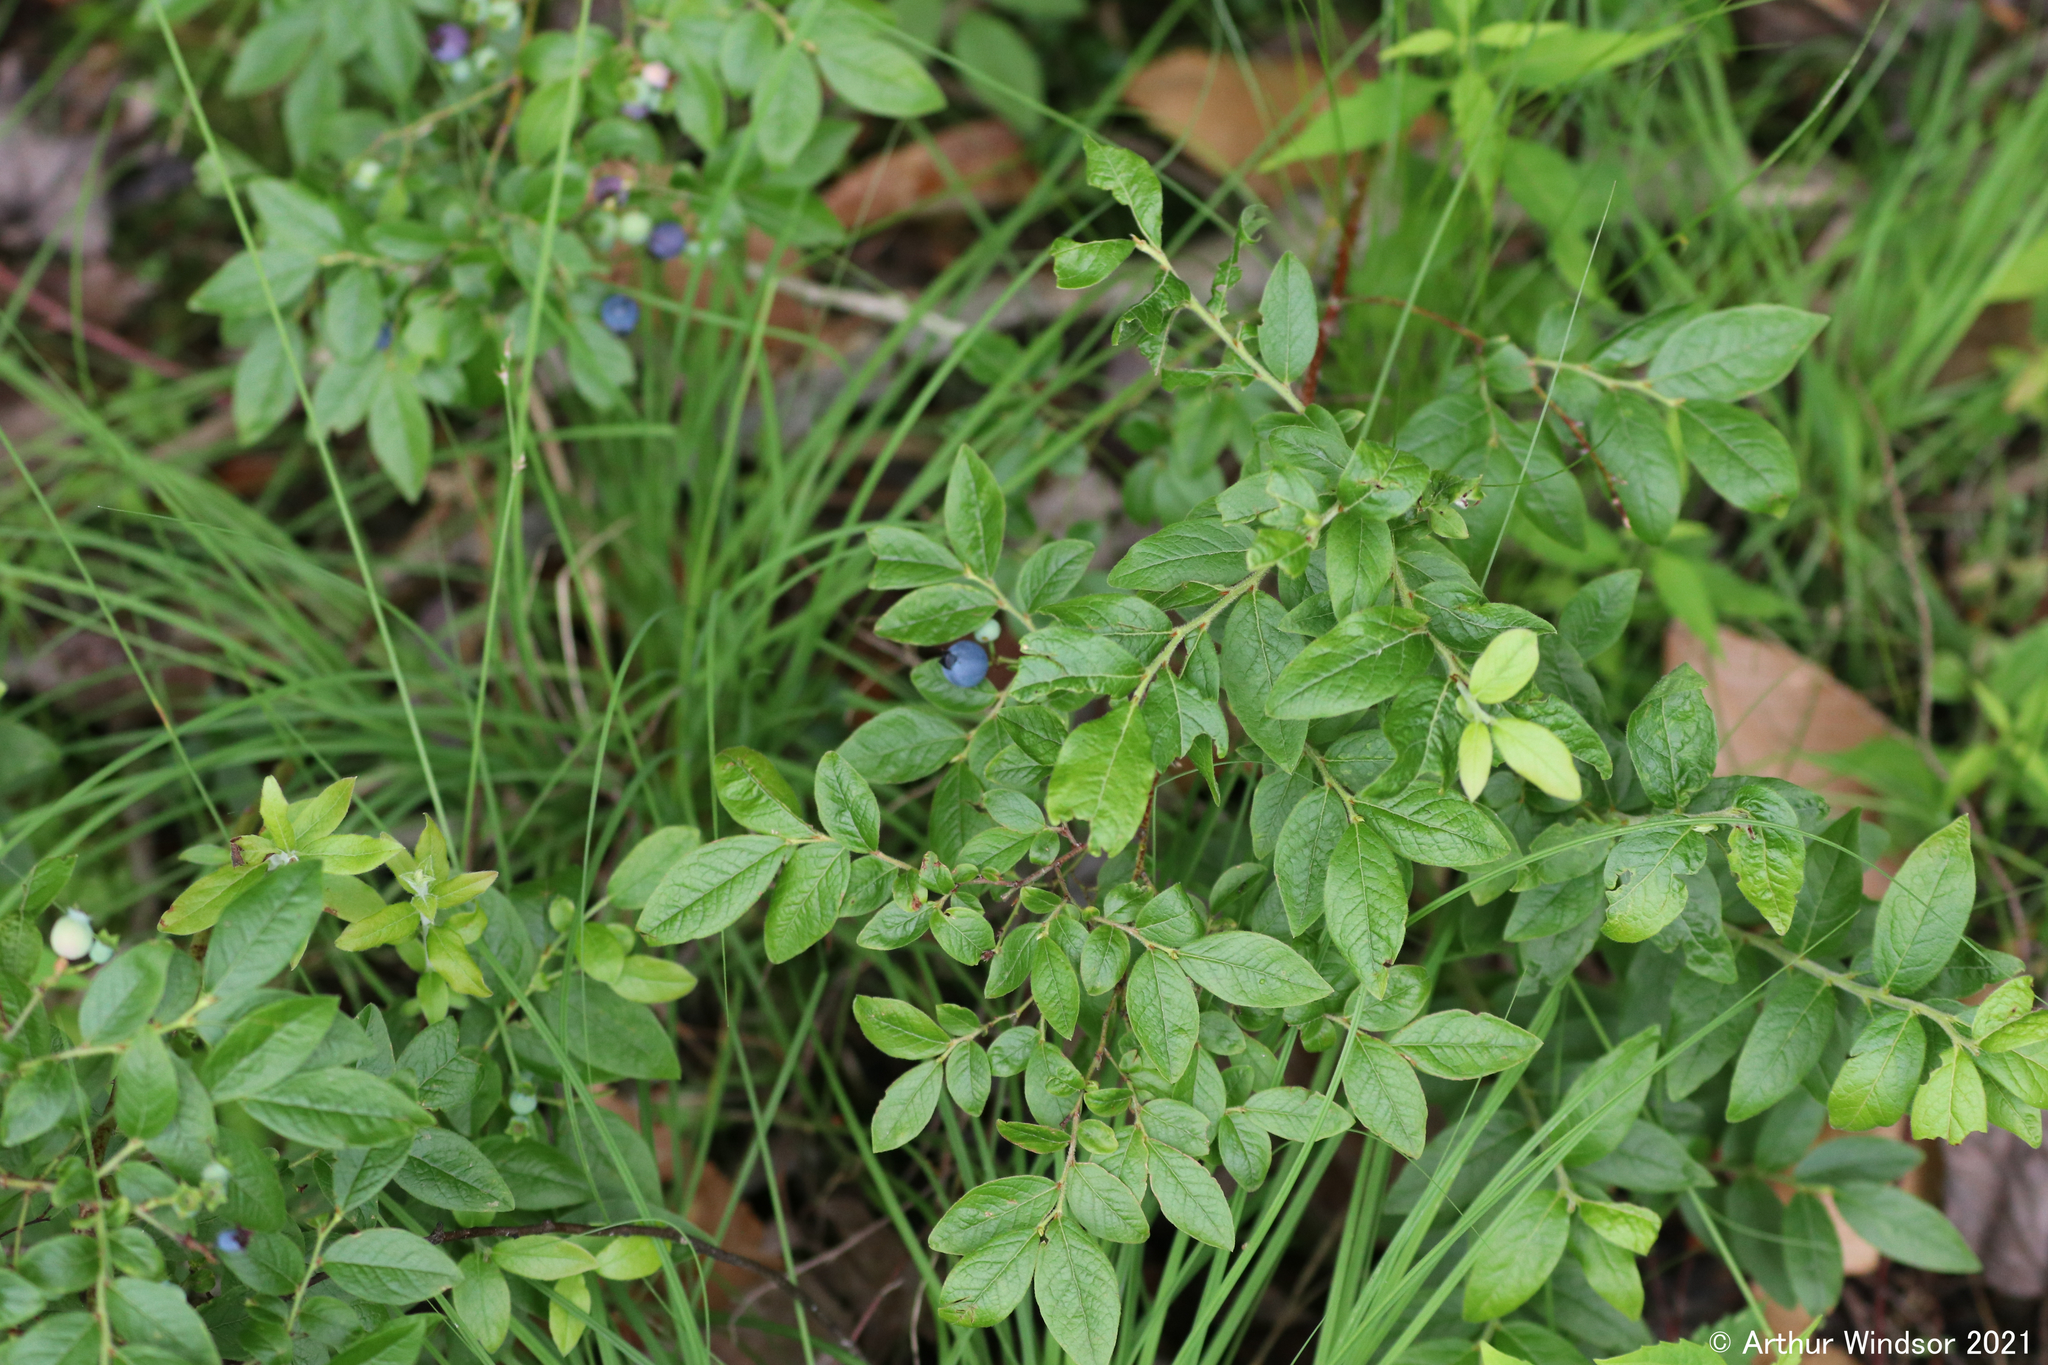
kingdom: Plantae
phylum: Tracheophyta
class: Magnoliopsida
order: Ericales
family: Ericaceae
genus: Vaccinium
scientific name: Vaccinium myrtilloides
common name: Canada blueberry
